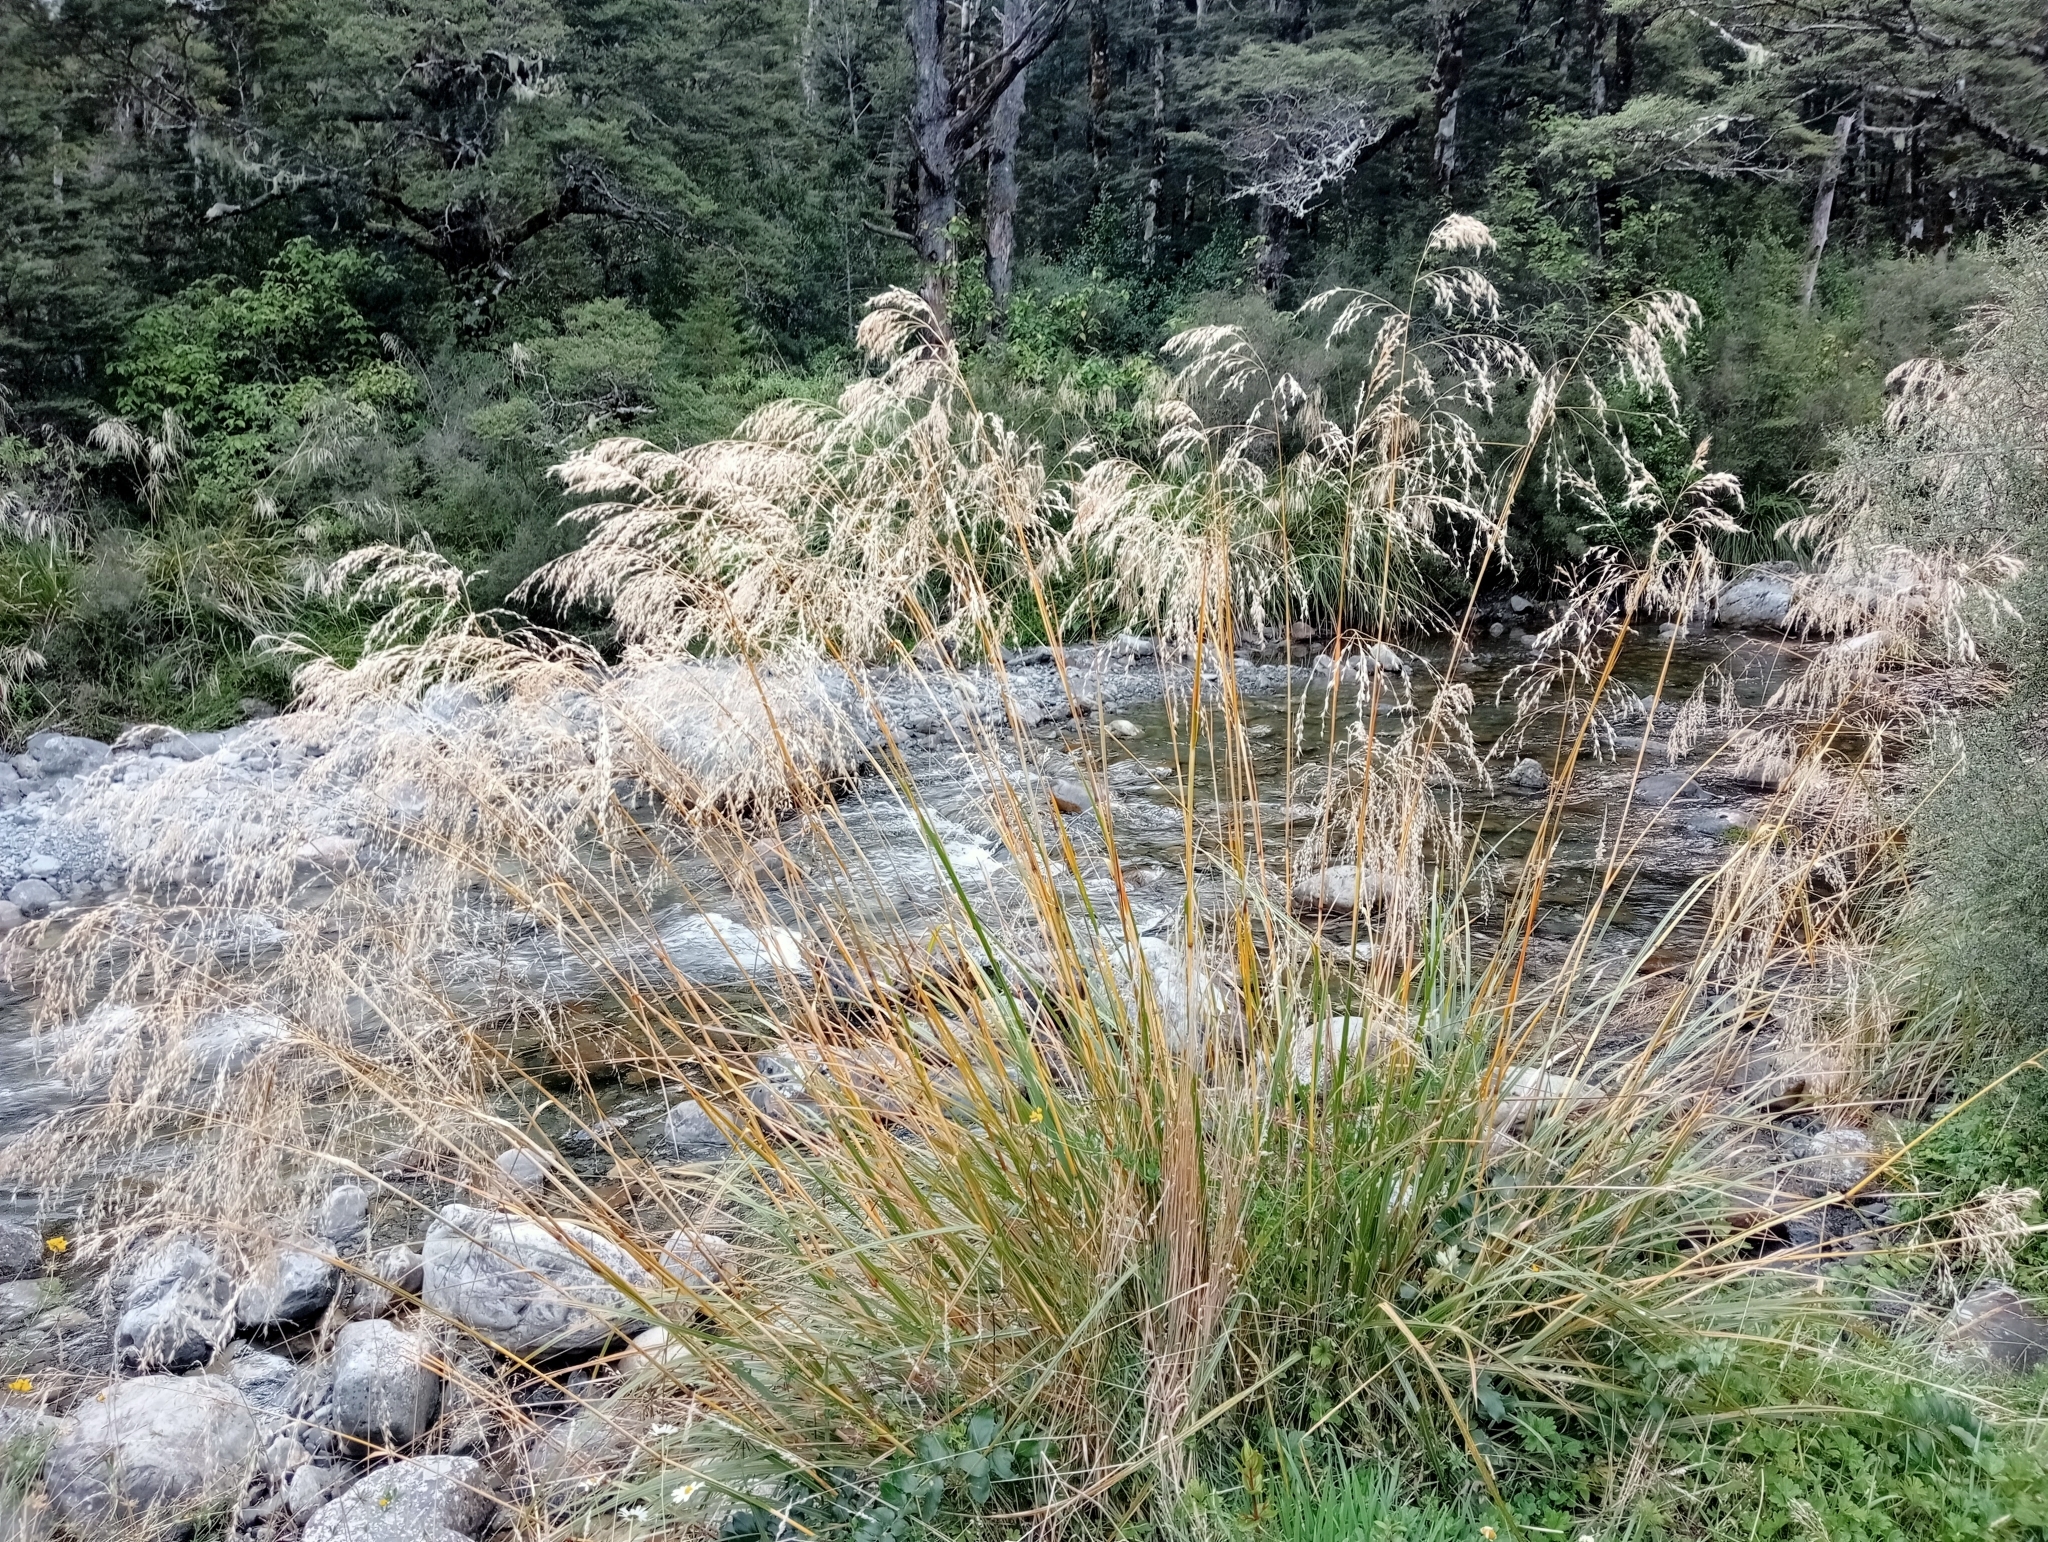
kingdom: Plantae
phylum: Tracheophyta
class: Liliopsida
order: Poales
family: Poaceae
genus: Chionochloa
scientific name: Chionochloa conspicua
